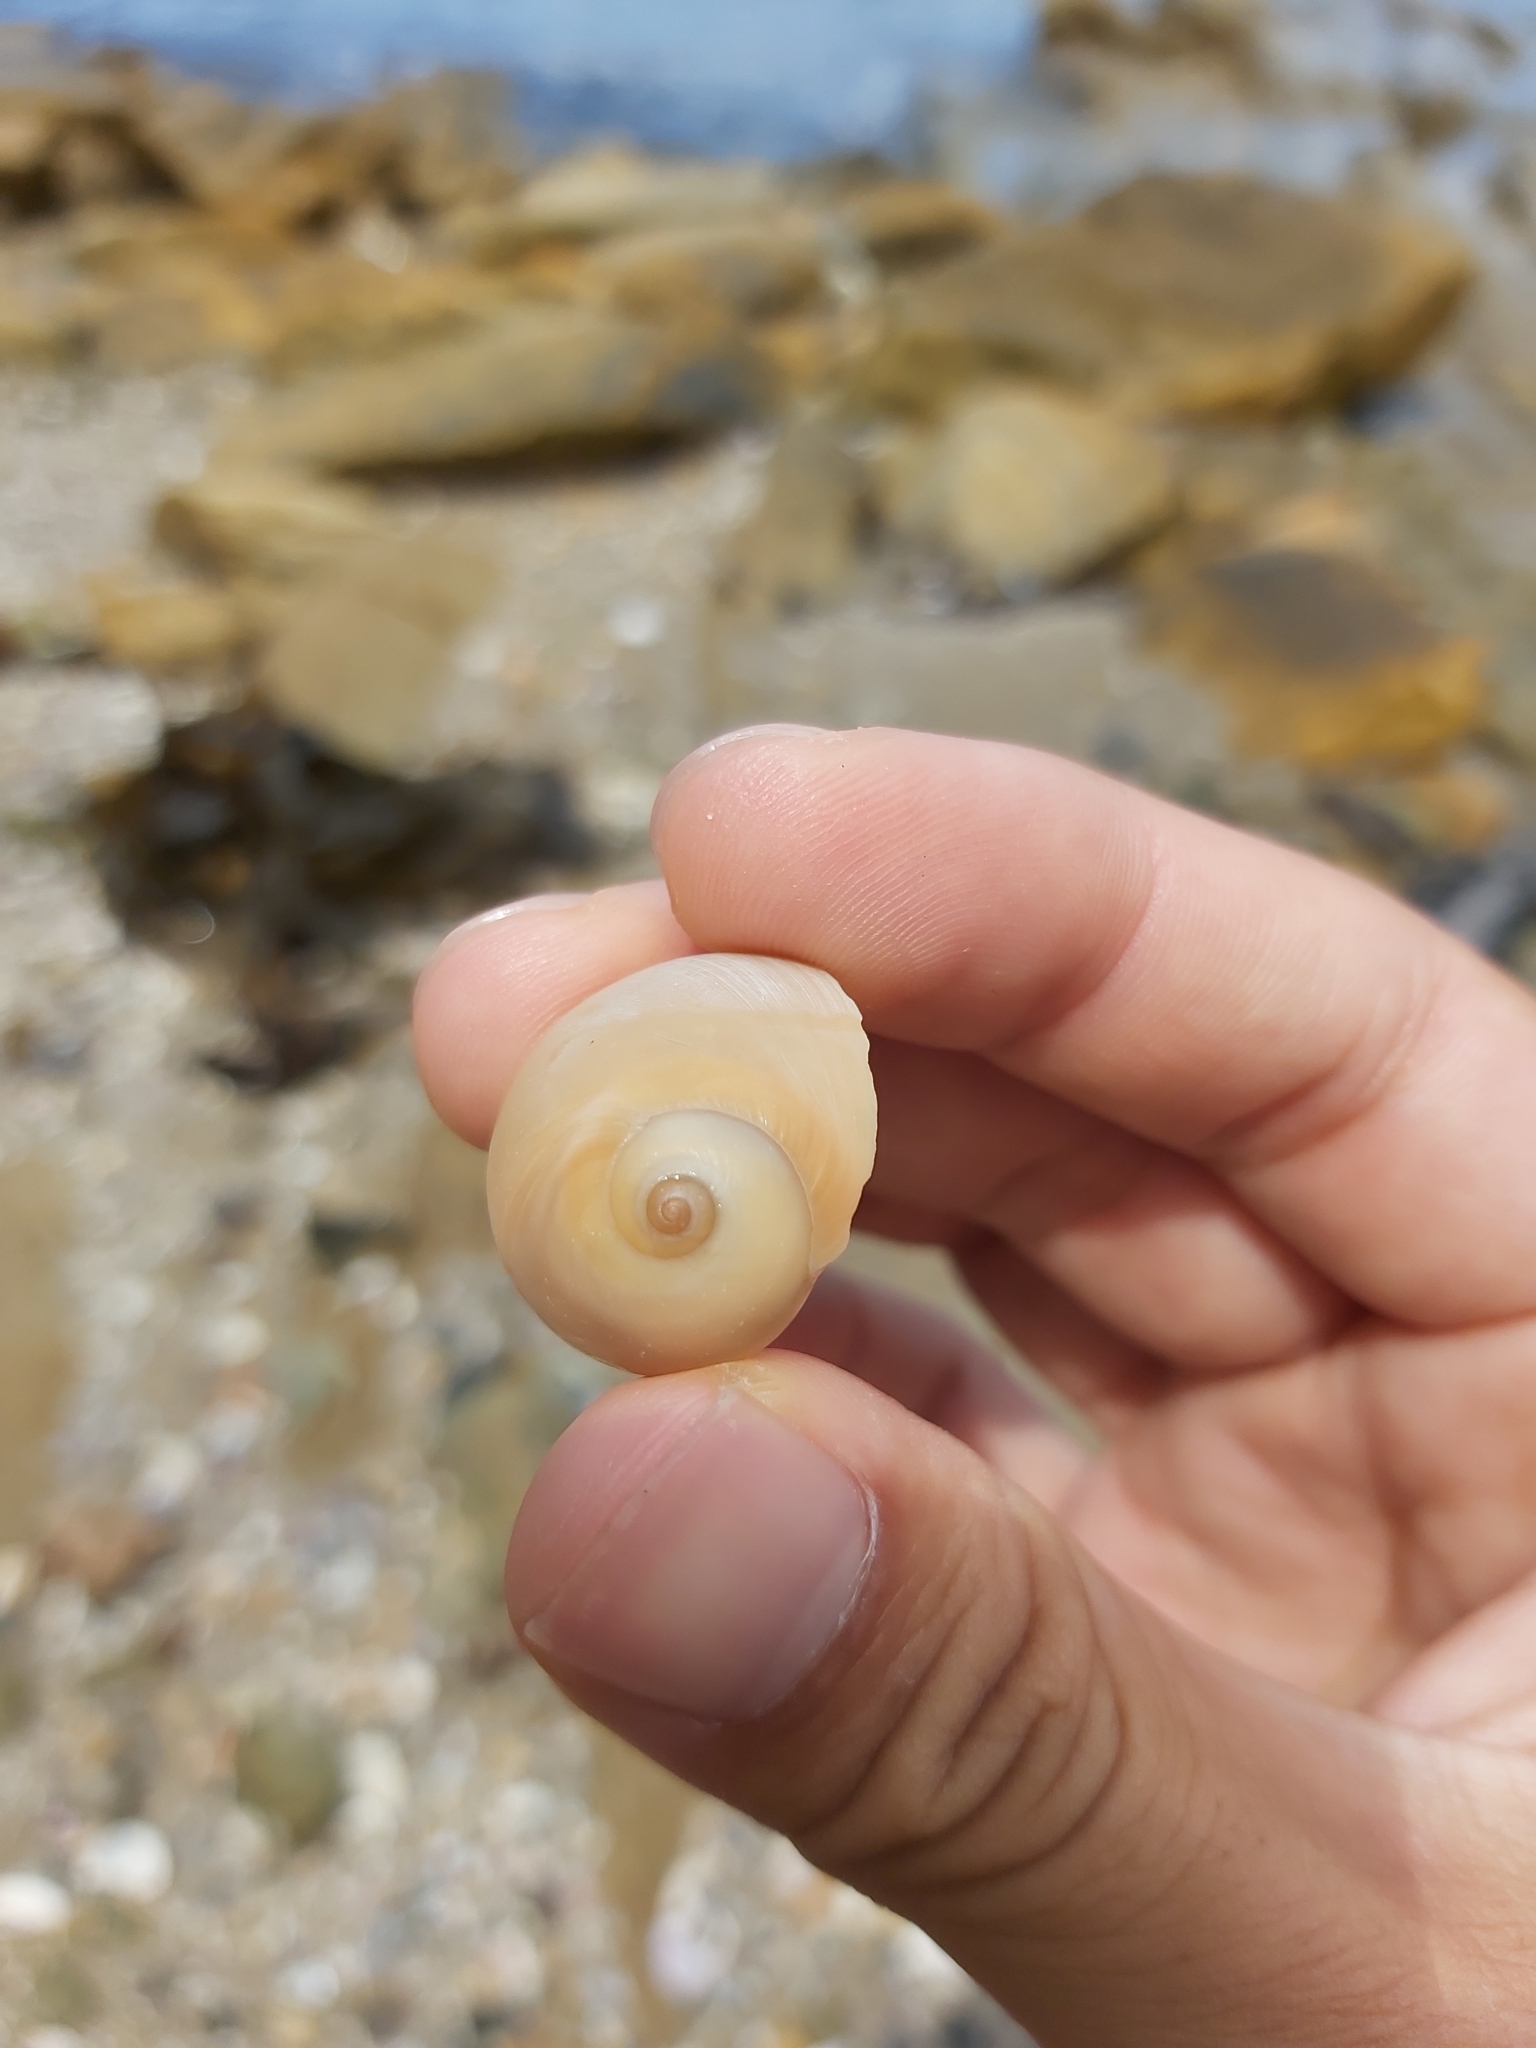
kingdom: Animalia
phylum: Mollusca
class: Gastropoda
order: Littorinimorpha
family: Naticidae
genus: Neverita
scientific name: Neverita didyma
